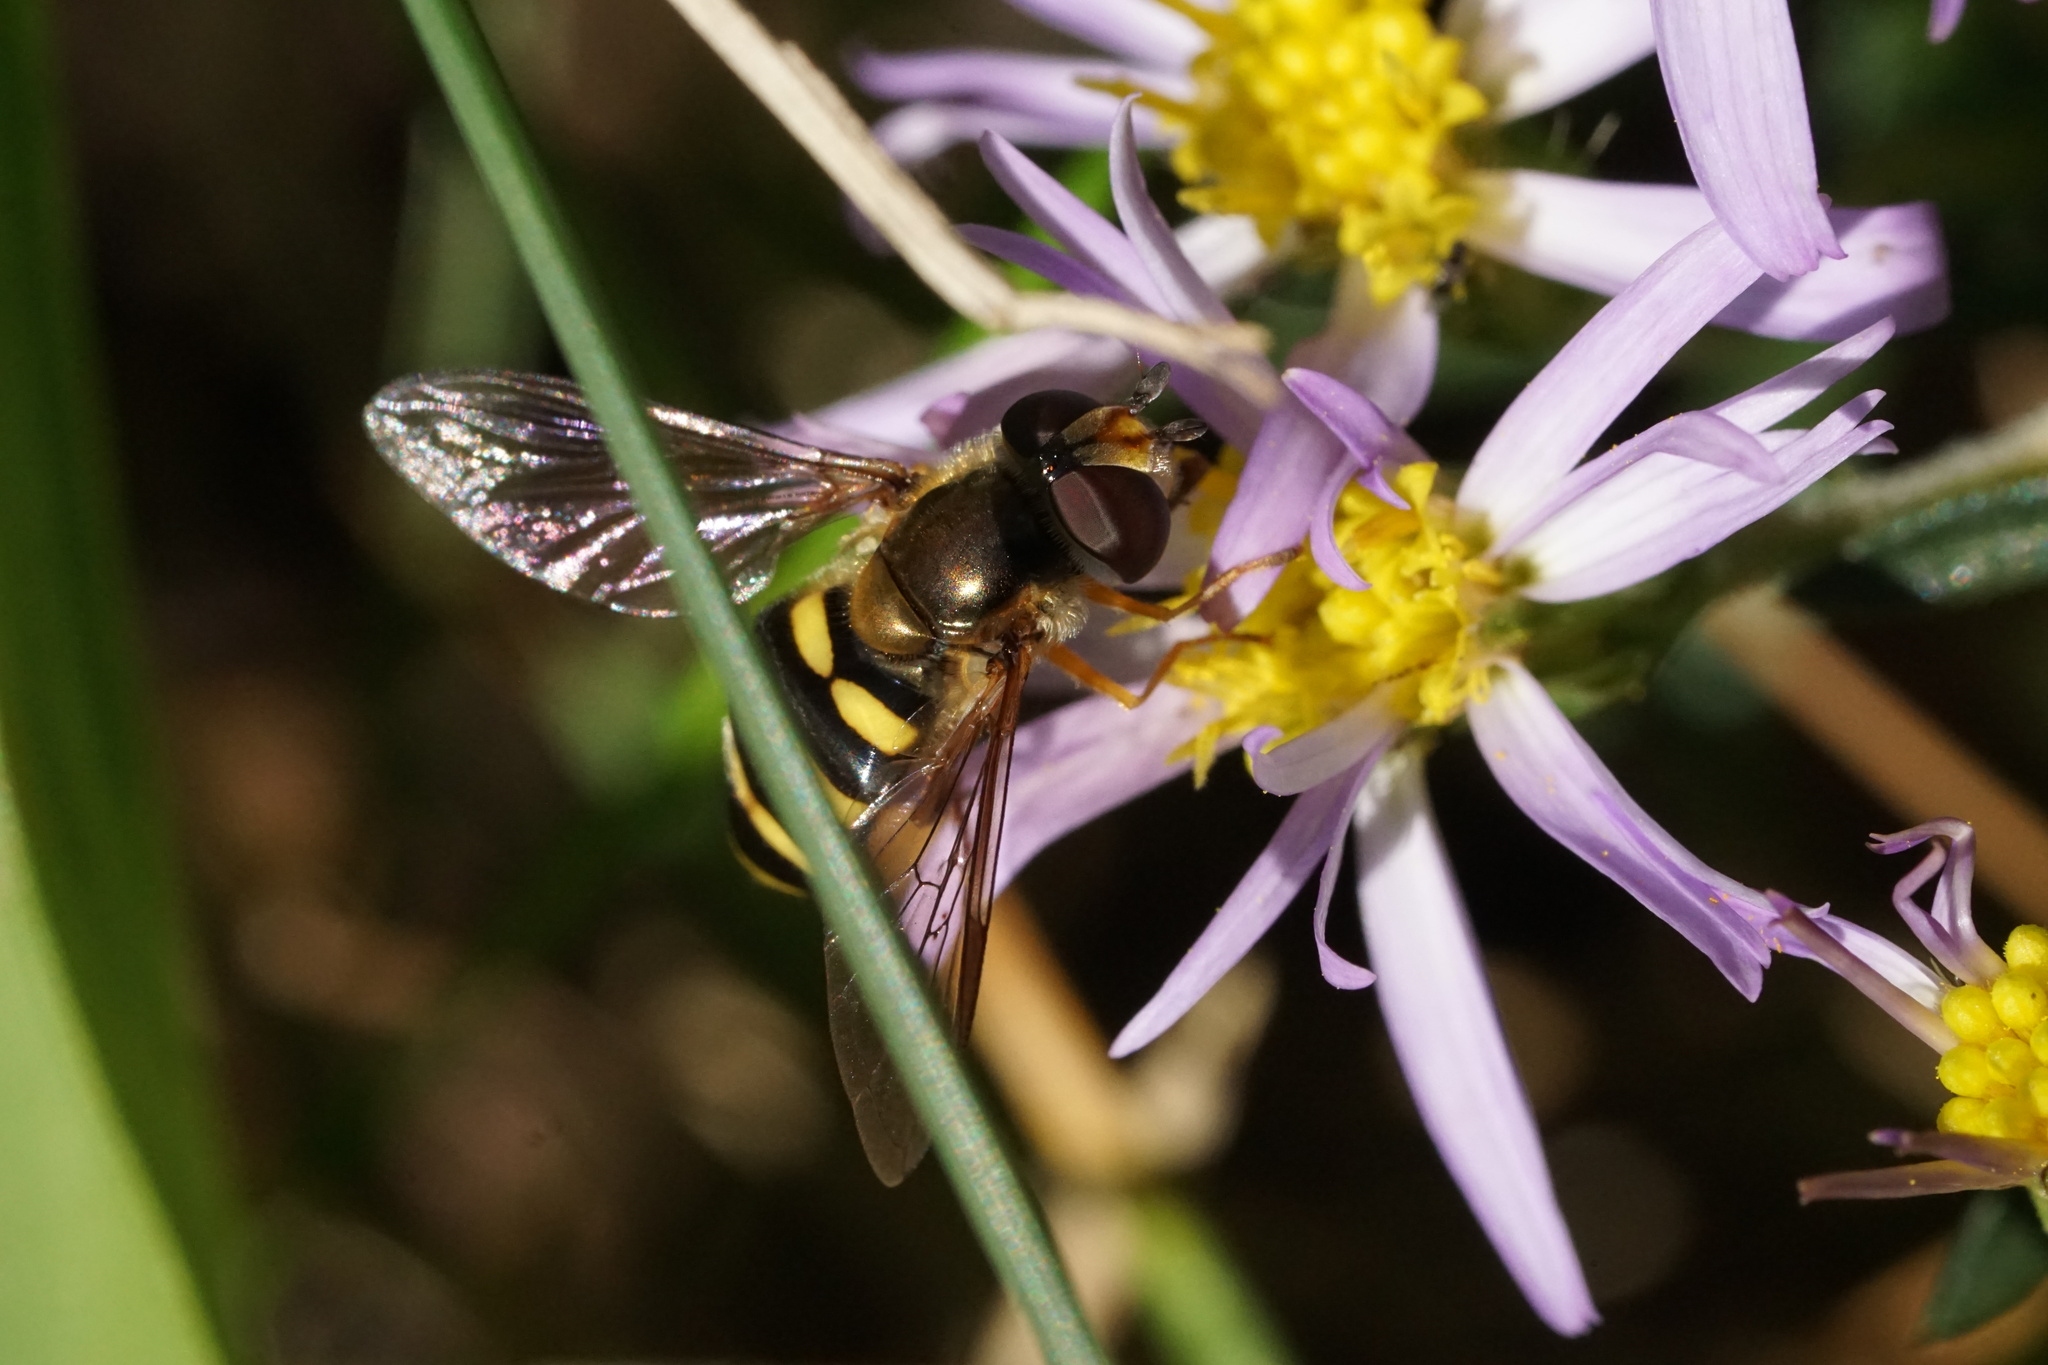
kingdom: Animalia
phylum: Arthropoda
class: Insecta
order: Diptera
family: Syrphidae
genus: Eupeodes
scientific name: Eupeodes
